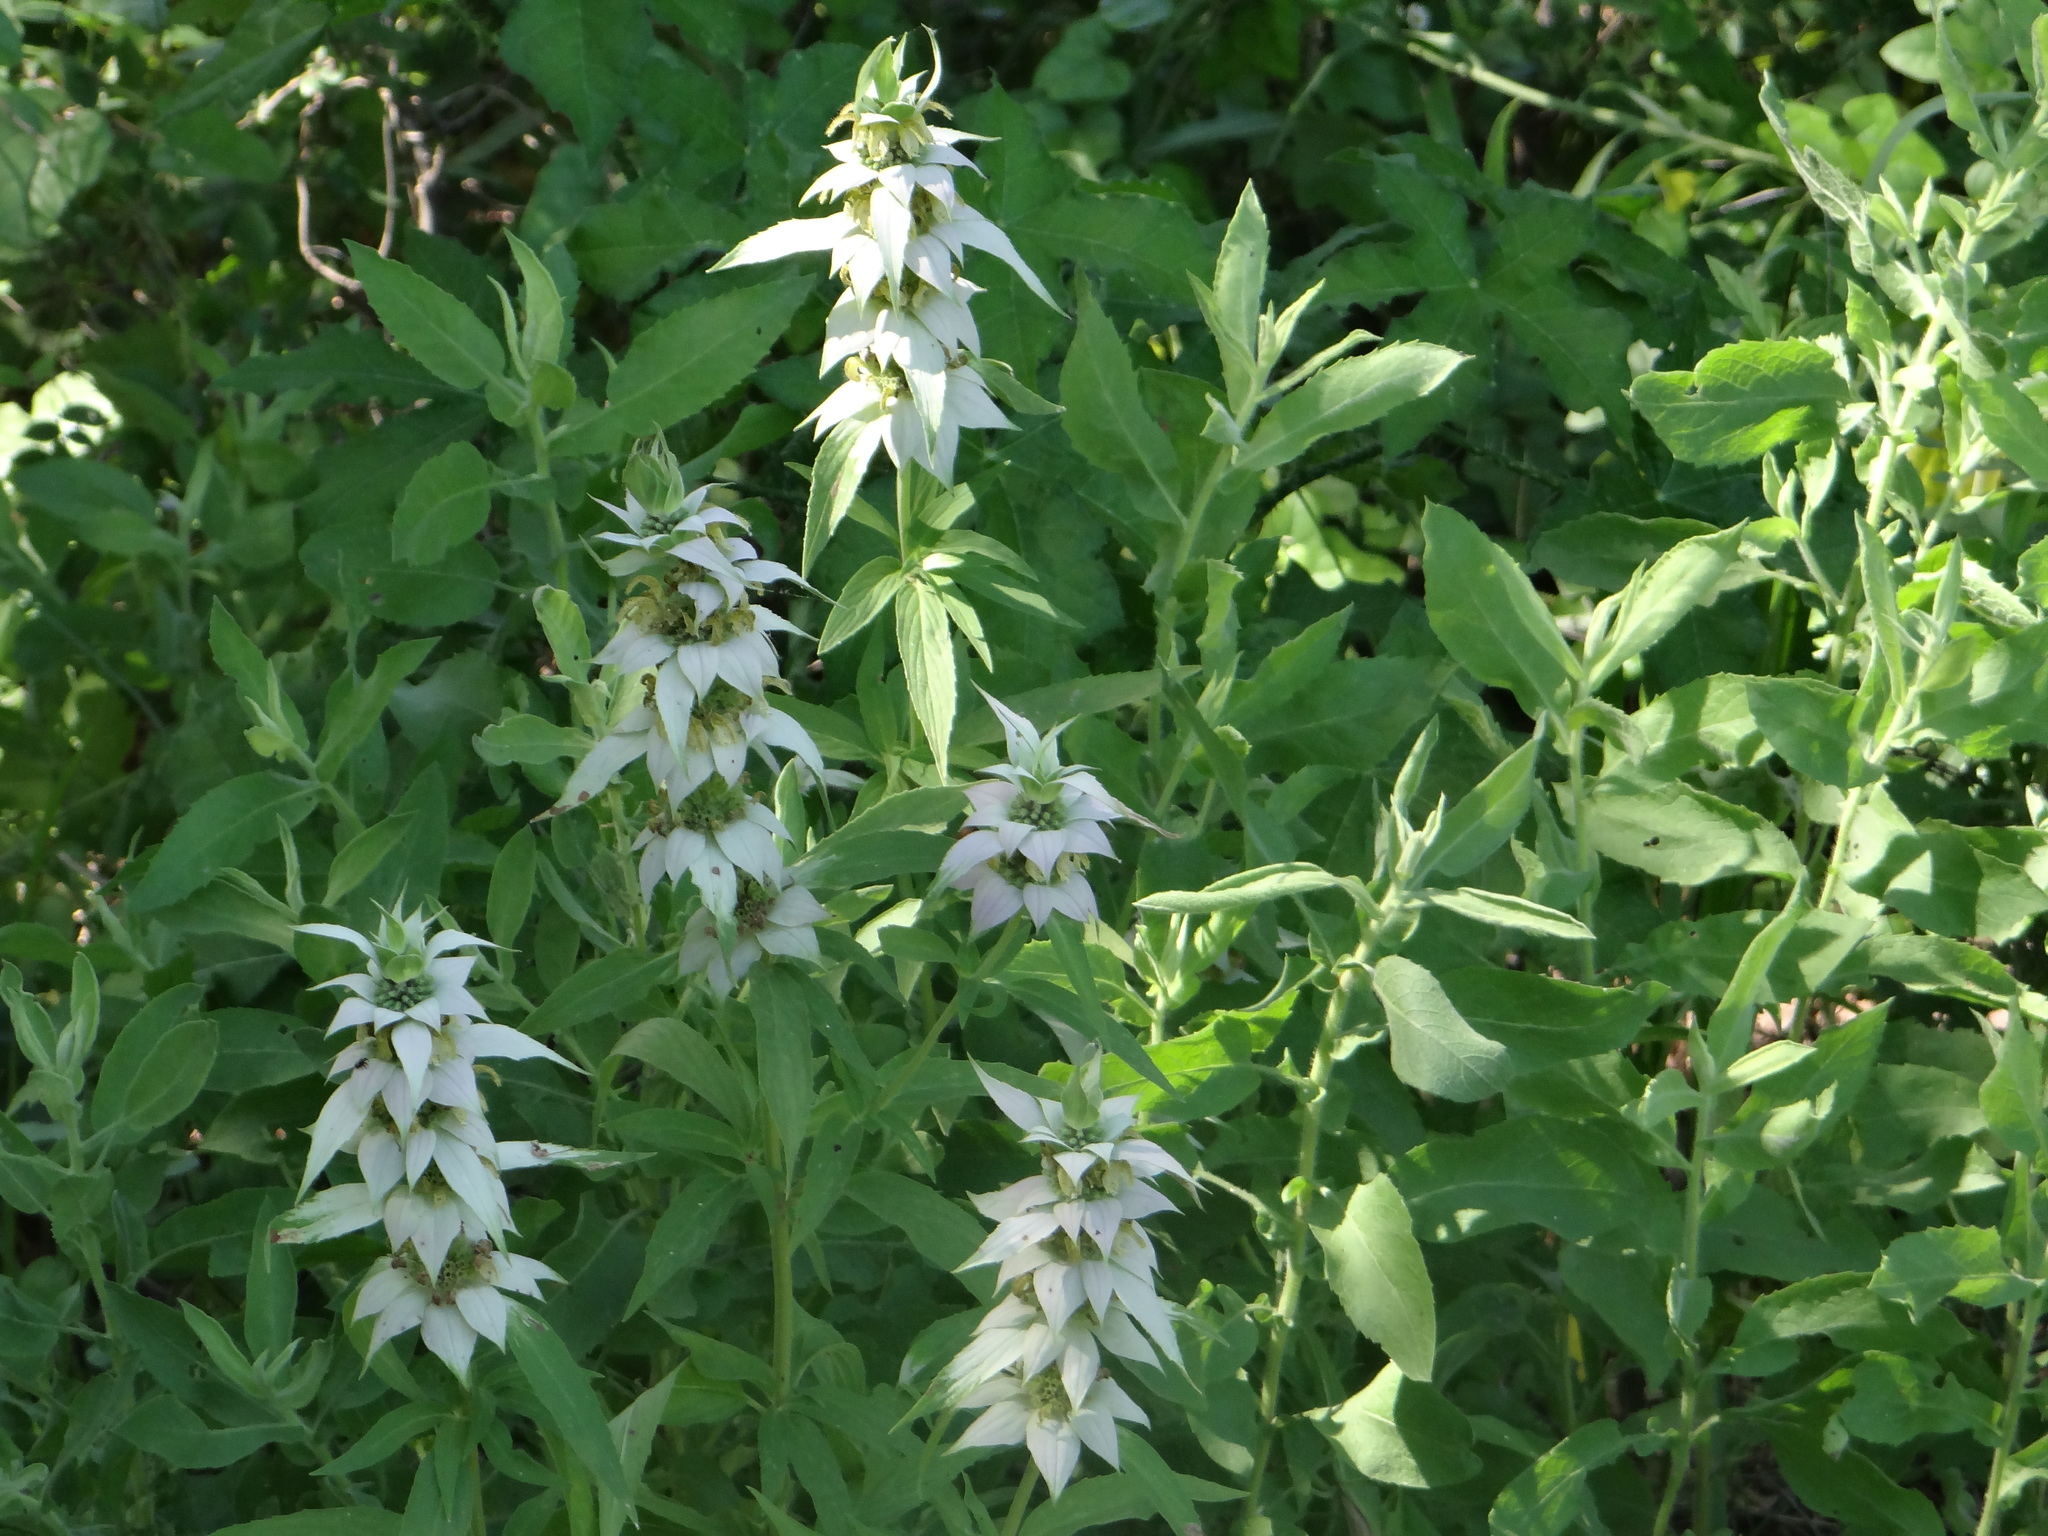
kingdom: Plantae
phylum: Tracheophyta
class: Magnoliopsida
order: Lamiales
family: Lamiaceae
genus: Monarda
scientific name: Monarda punctata
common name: Dotted monarda
